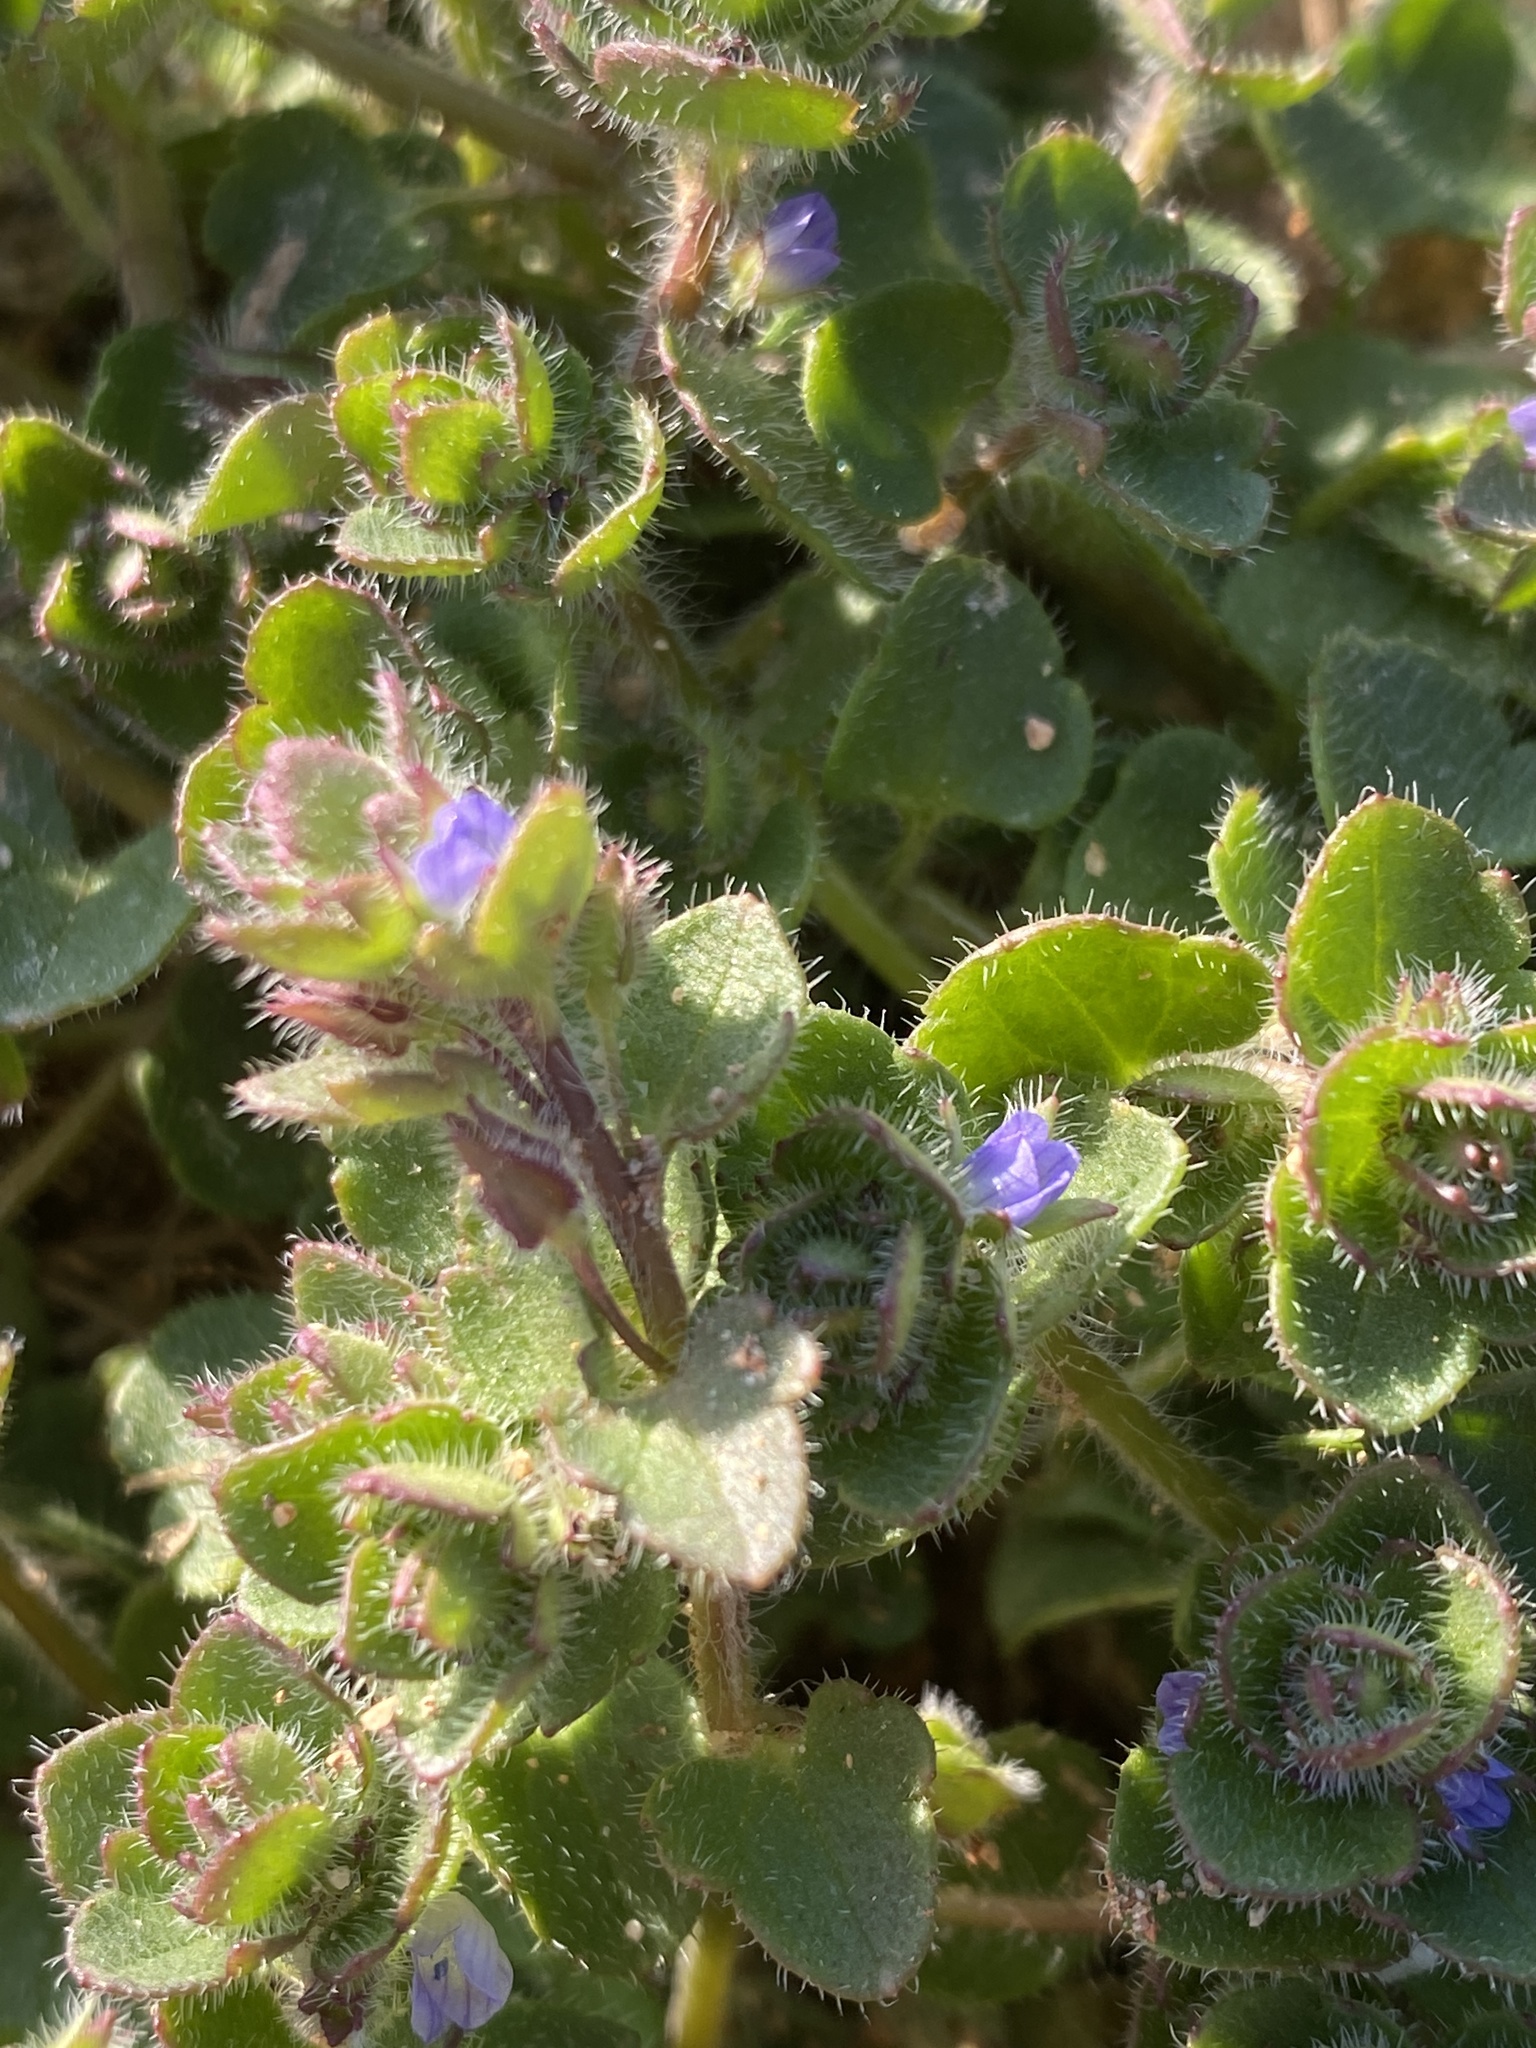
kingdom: Plantae
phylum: Tracheophyta
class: Magnoliopsida
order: Lamiales
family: Plantaginaceae
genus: Veronica
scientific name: Veronica hederifolia
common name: Ivy-leaved speedwell
